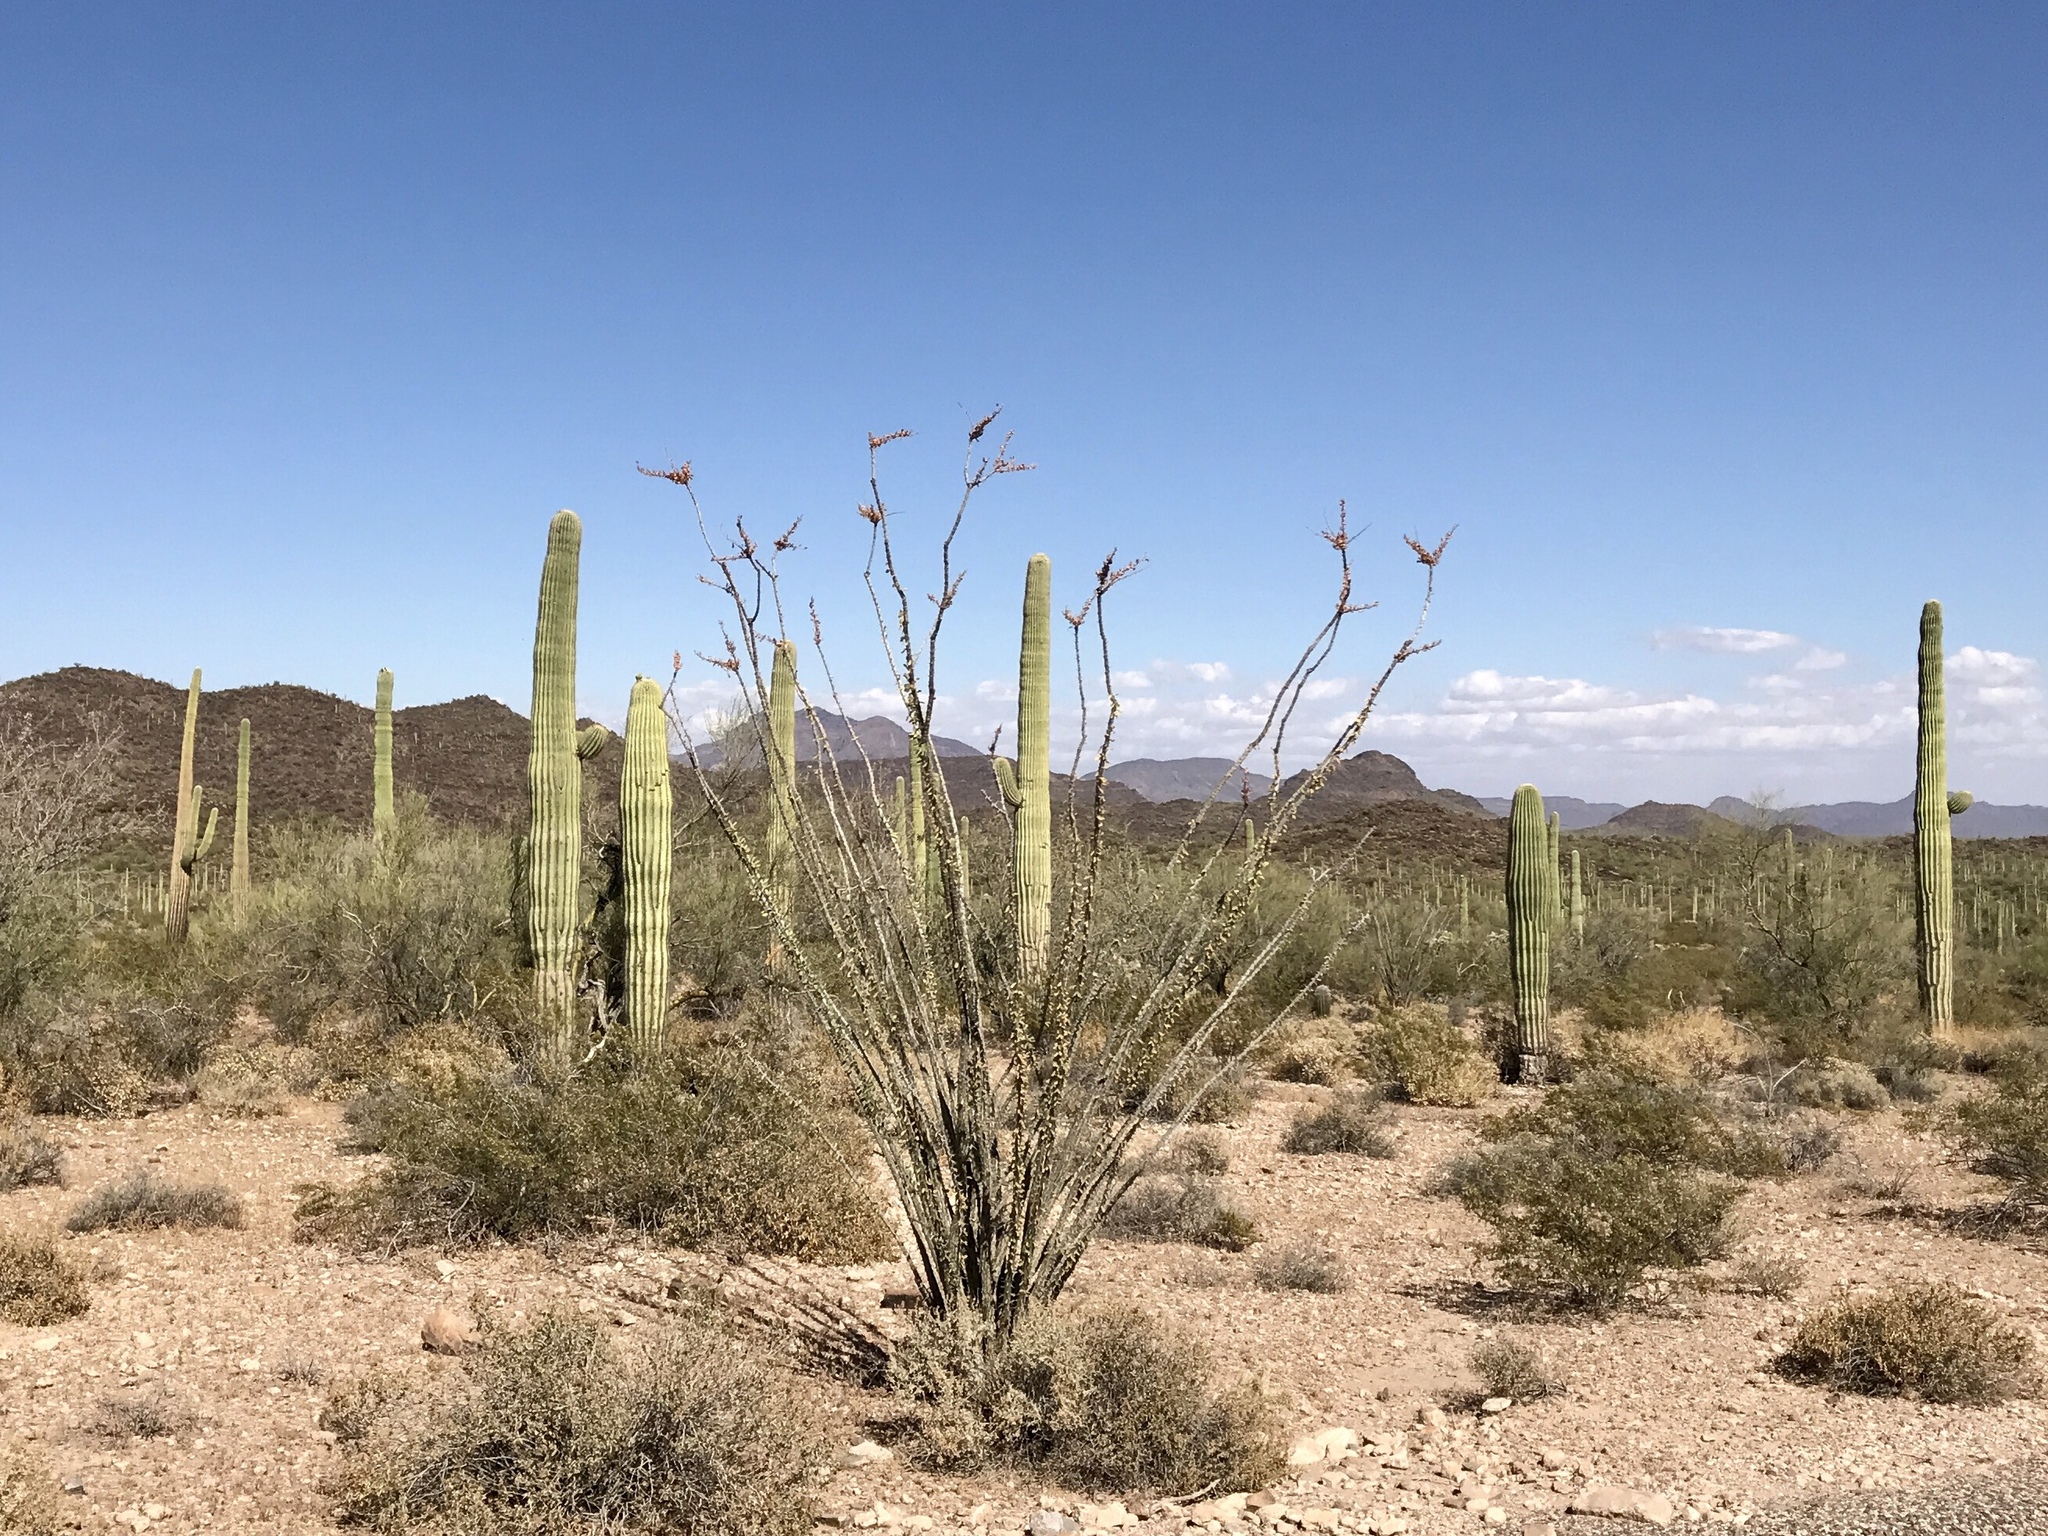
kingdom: Plantae
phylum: Tracheophyta
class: Magnoliopsida
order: Caryophyllales
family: Cactaceae
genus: Carnegiea
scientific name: Carnegiea gigantea
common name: Saguaro
